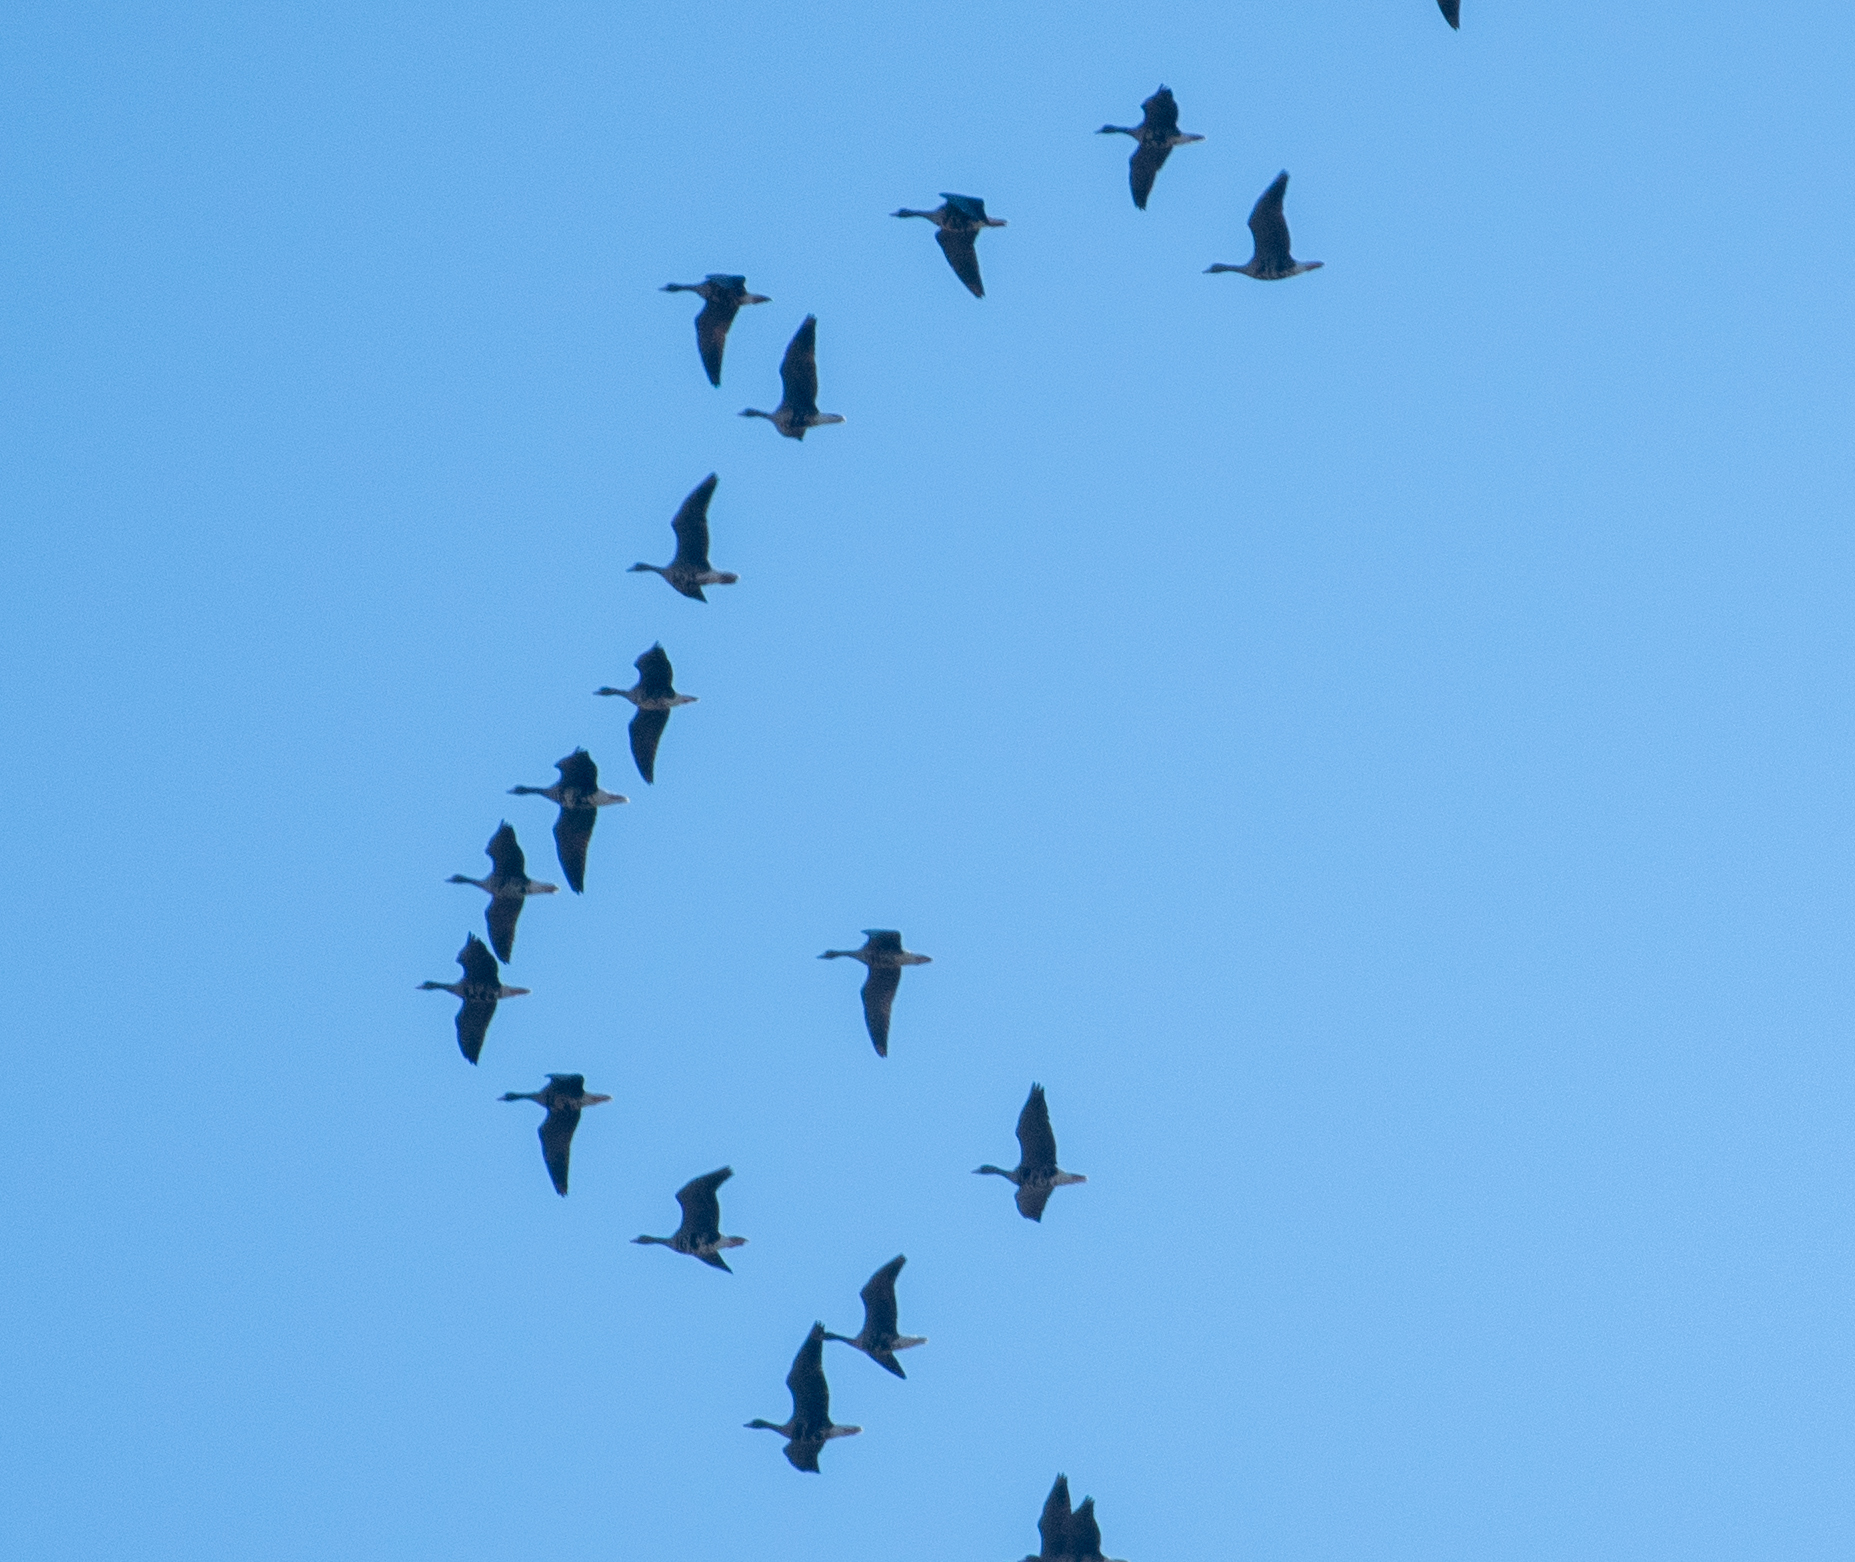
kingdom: Animalia
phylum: Chordata
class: Aves
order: Anseriformes
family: Anatidae
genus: Anser
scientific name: Anser albifrons
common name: Greater white-fronted goose
